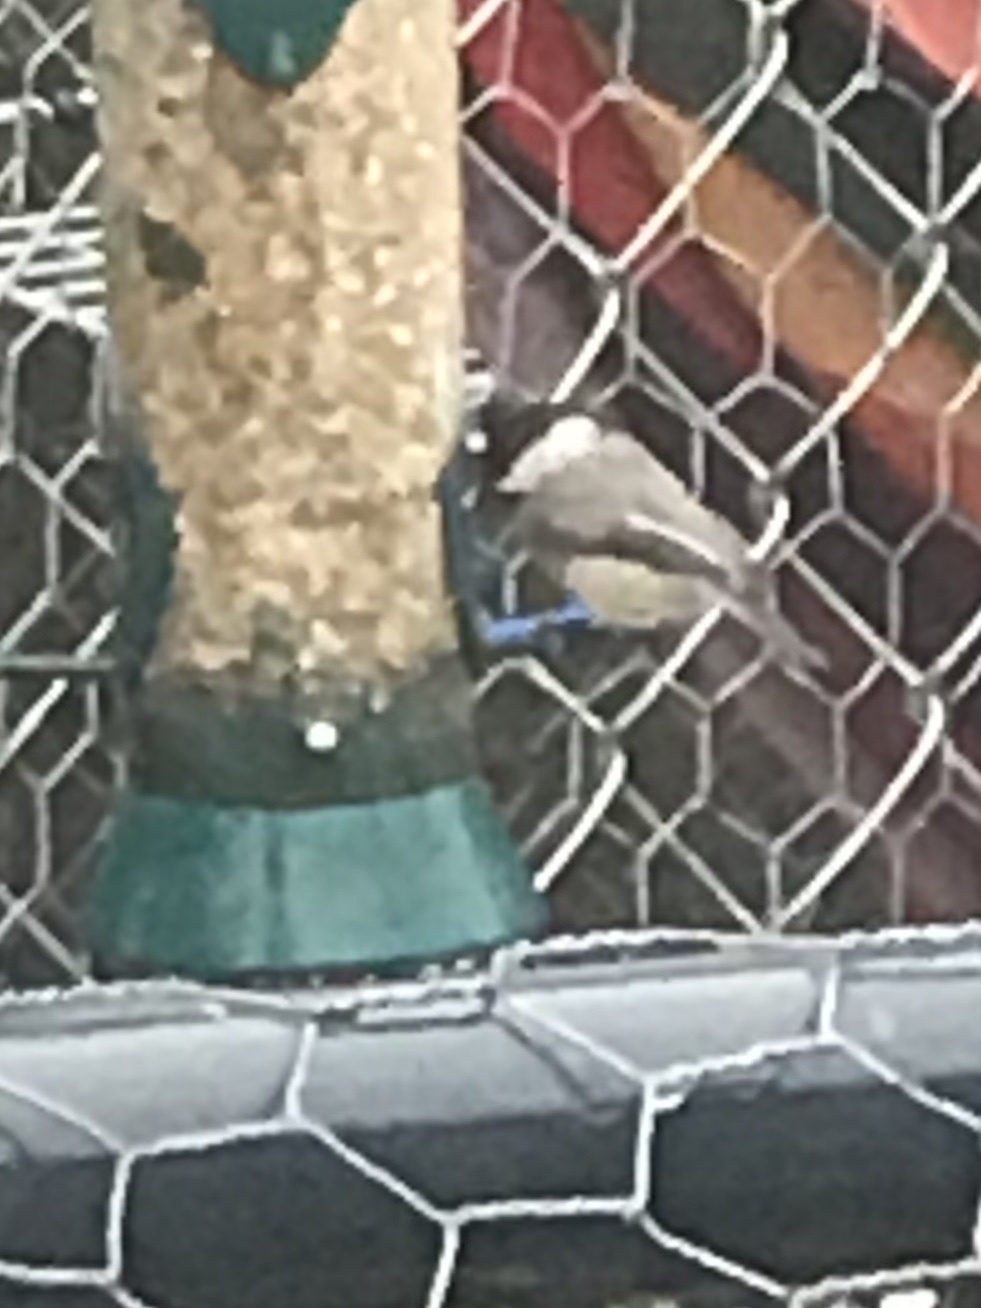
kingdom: Animalia
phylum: Chordata
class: Aves
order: Passeriformes
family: Paridae
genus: Poecile
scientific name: Poecile carolinensis
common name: Carolina chickadee
